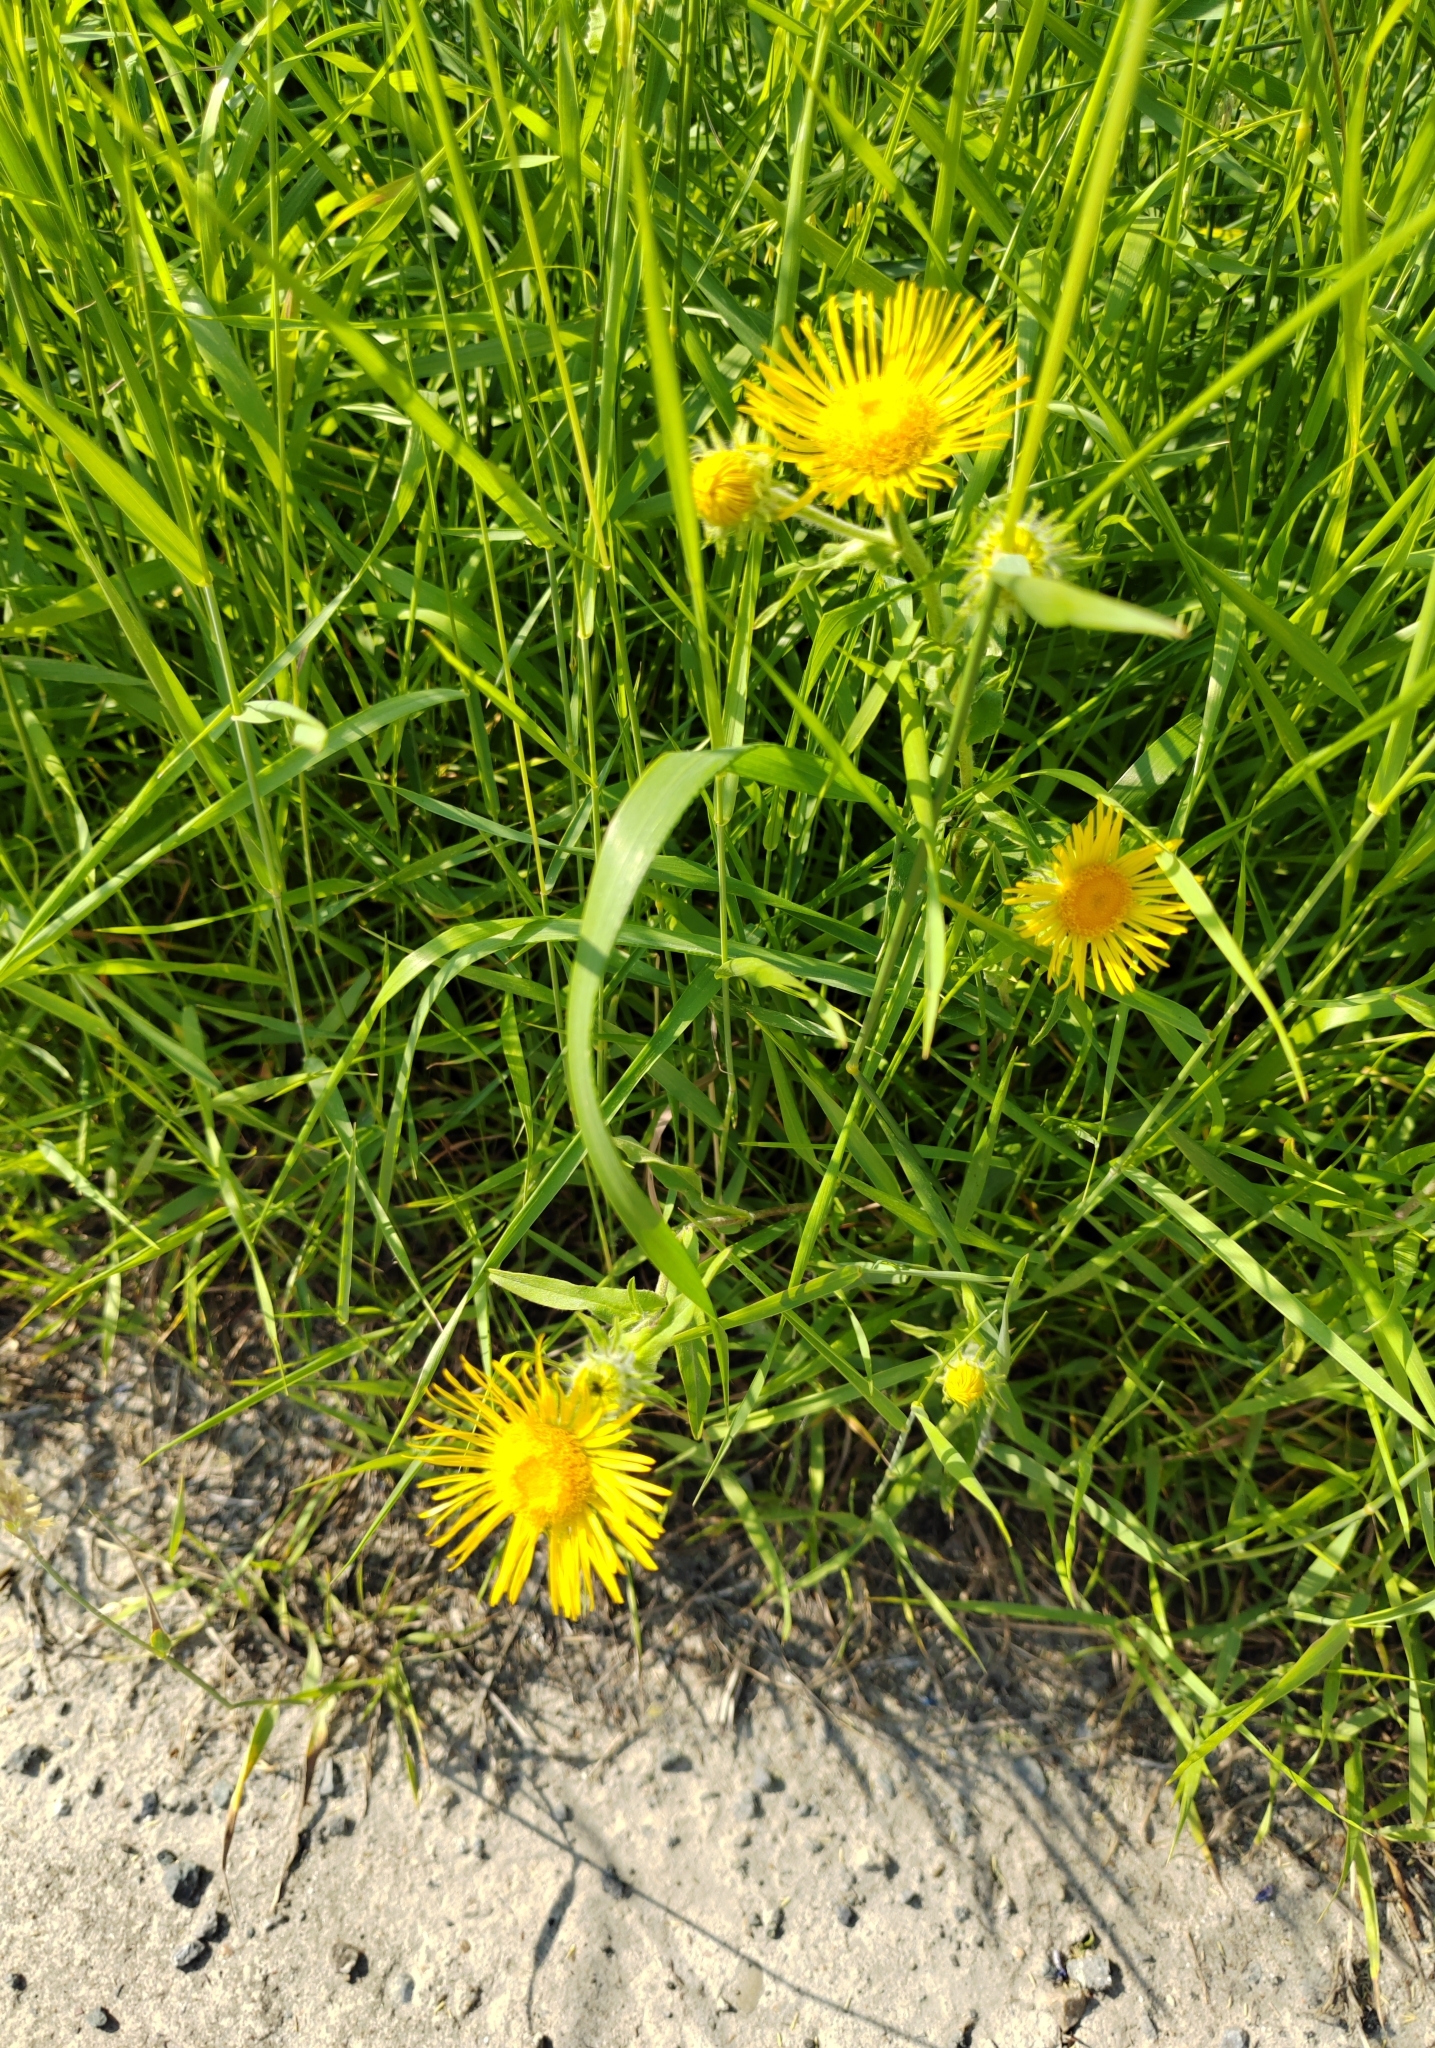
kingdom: Plantae
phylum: Tracheophyta
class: Magnoliopsida
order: Asterales
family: Asteraceae
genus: Pentanema
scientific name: Pentanema britannicum
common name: British elecampane
